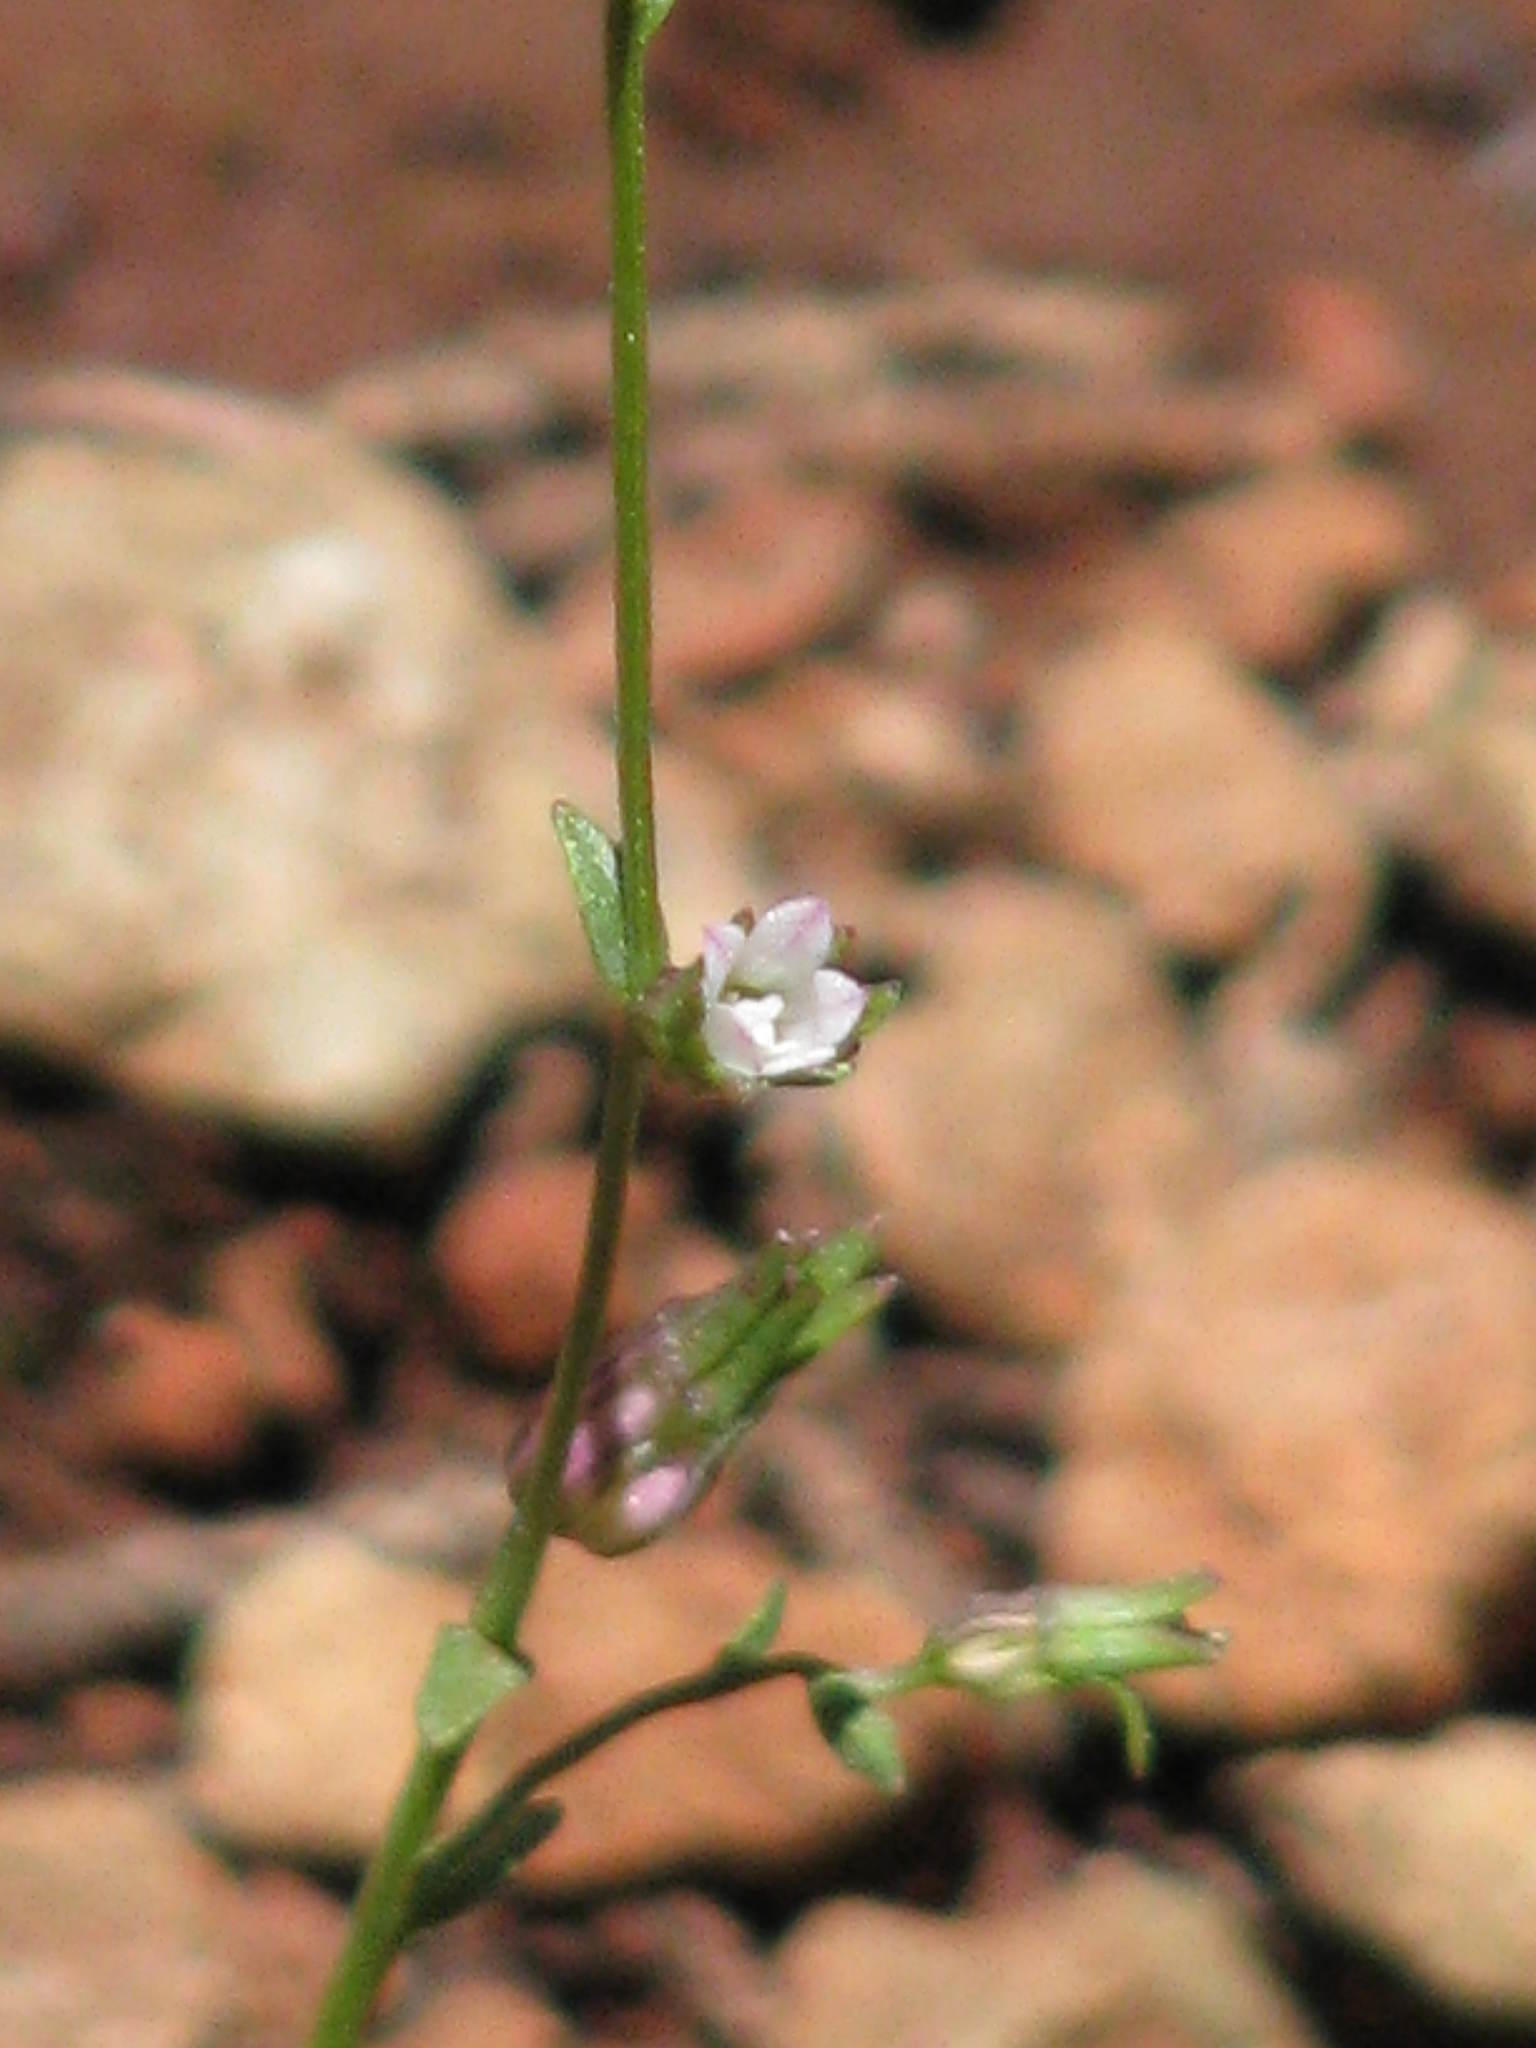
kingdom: Plantae
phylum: Tracheophyta
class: Magnoliopsida
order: Asterales
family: Campanulaceae
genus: Ravenella
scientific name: Ravenella griffinii
